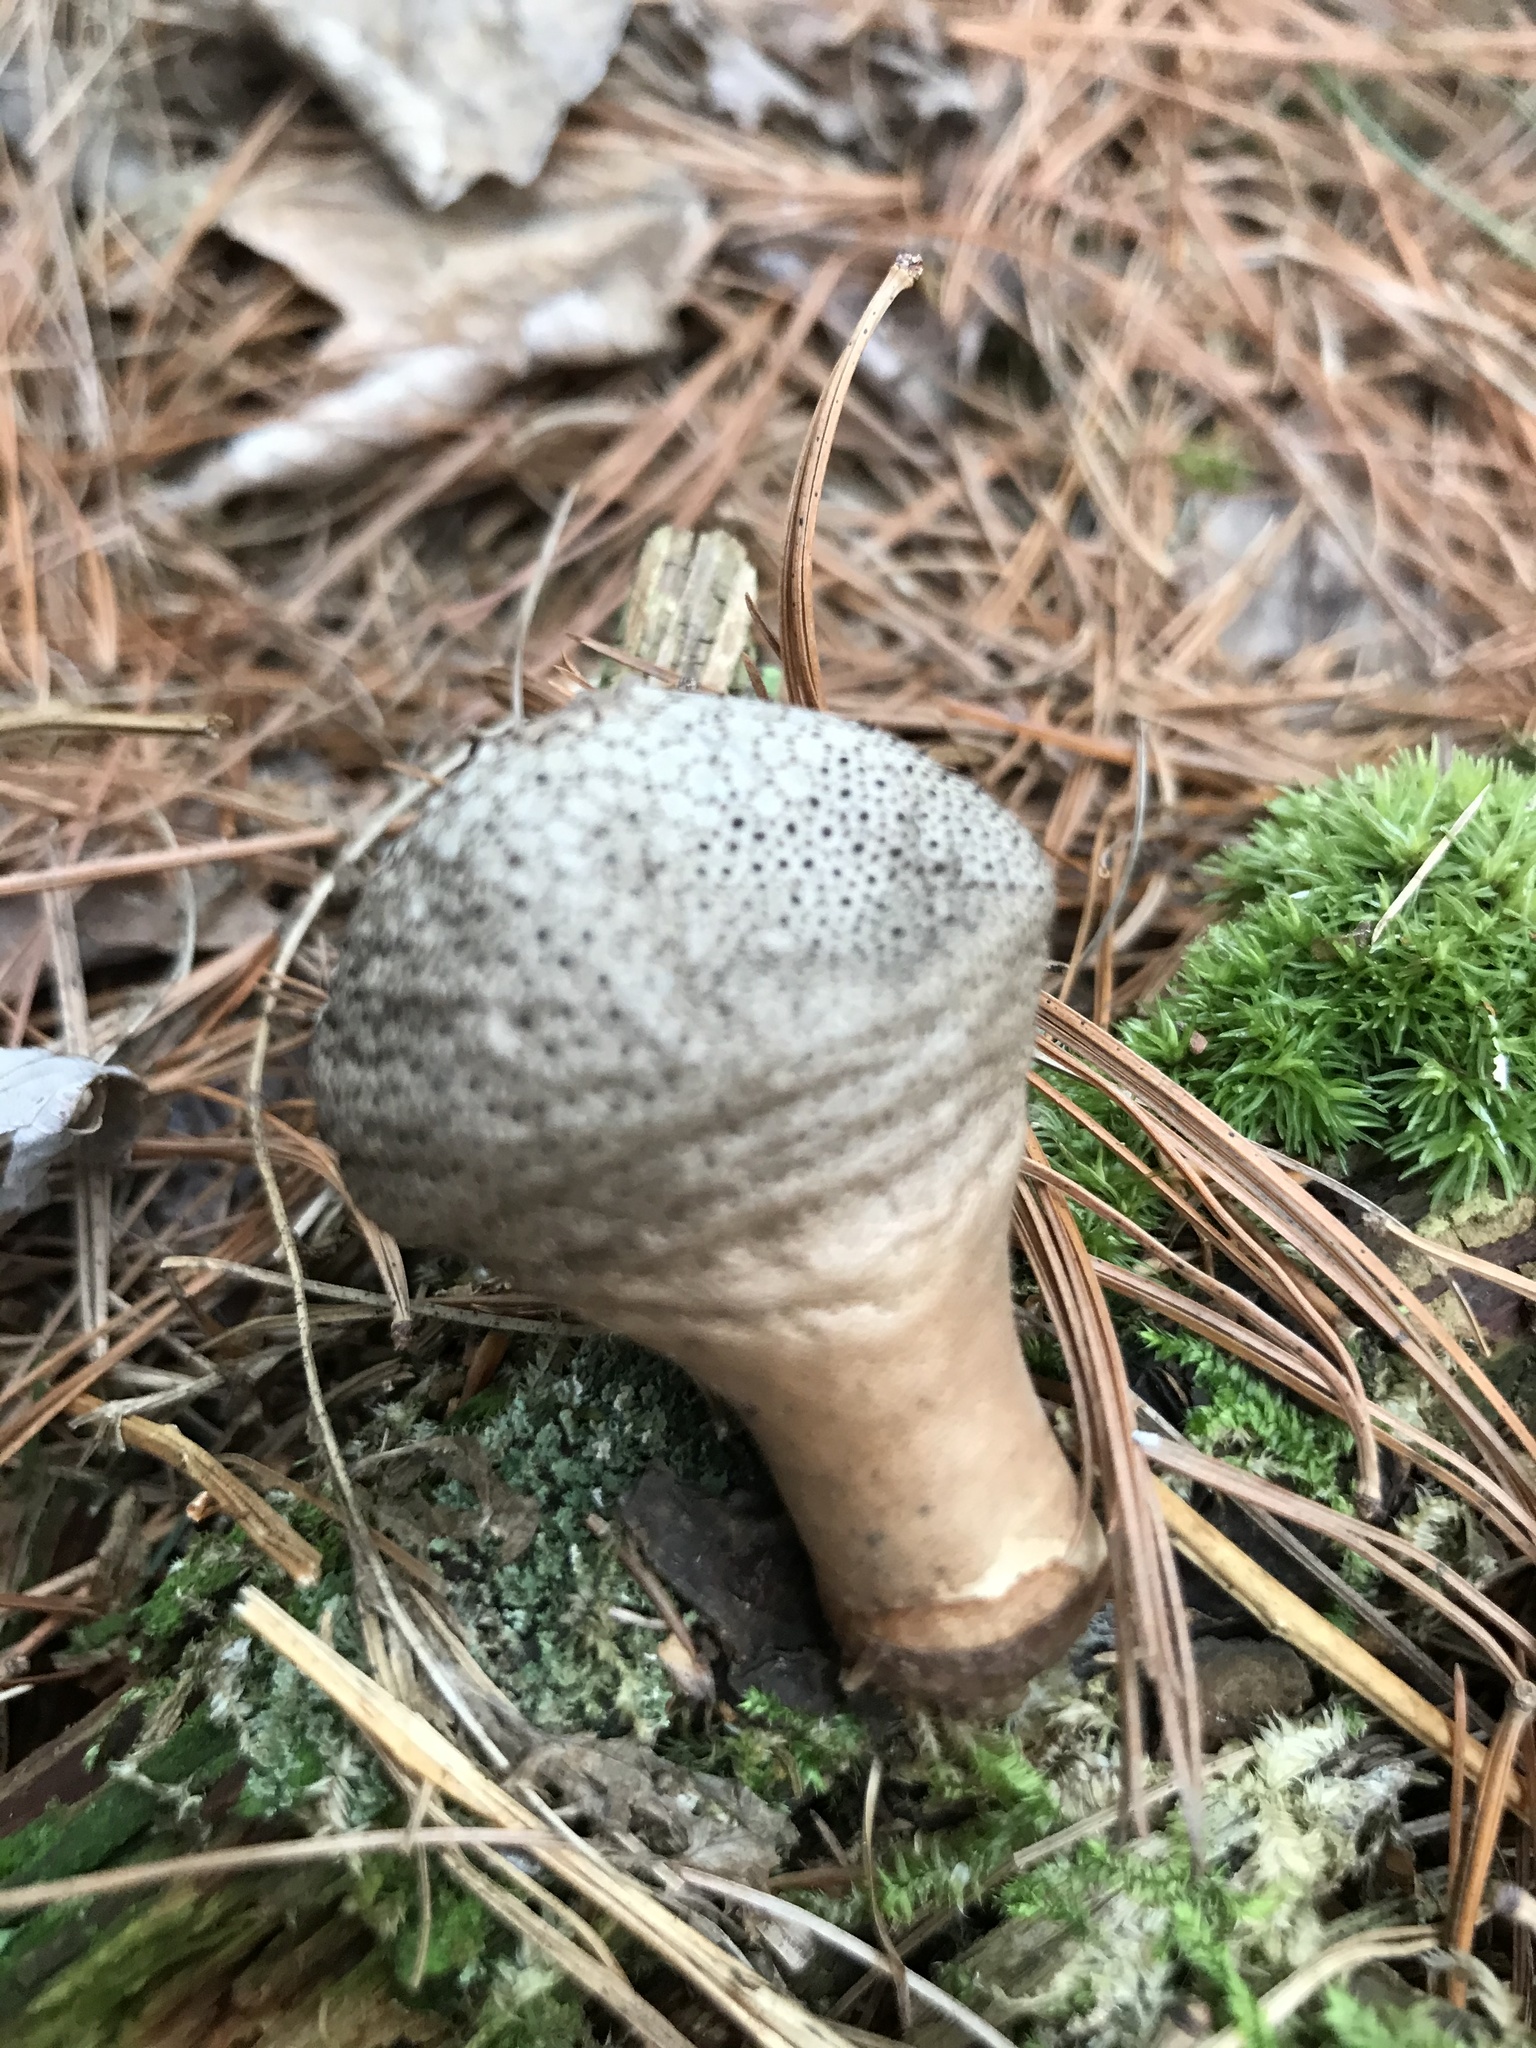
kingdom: Fungi
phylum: Basidiomycota
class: Agaricomycetes
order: Agaricales
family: Lycoperdaceae
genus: Lycoperdon
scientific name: Lycoperdon perlatum
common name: Common puffball
